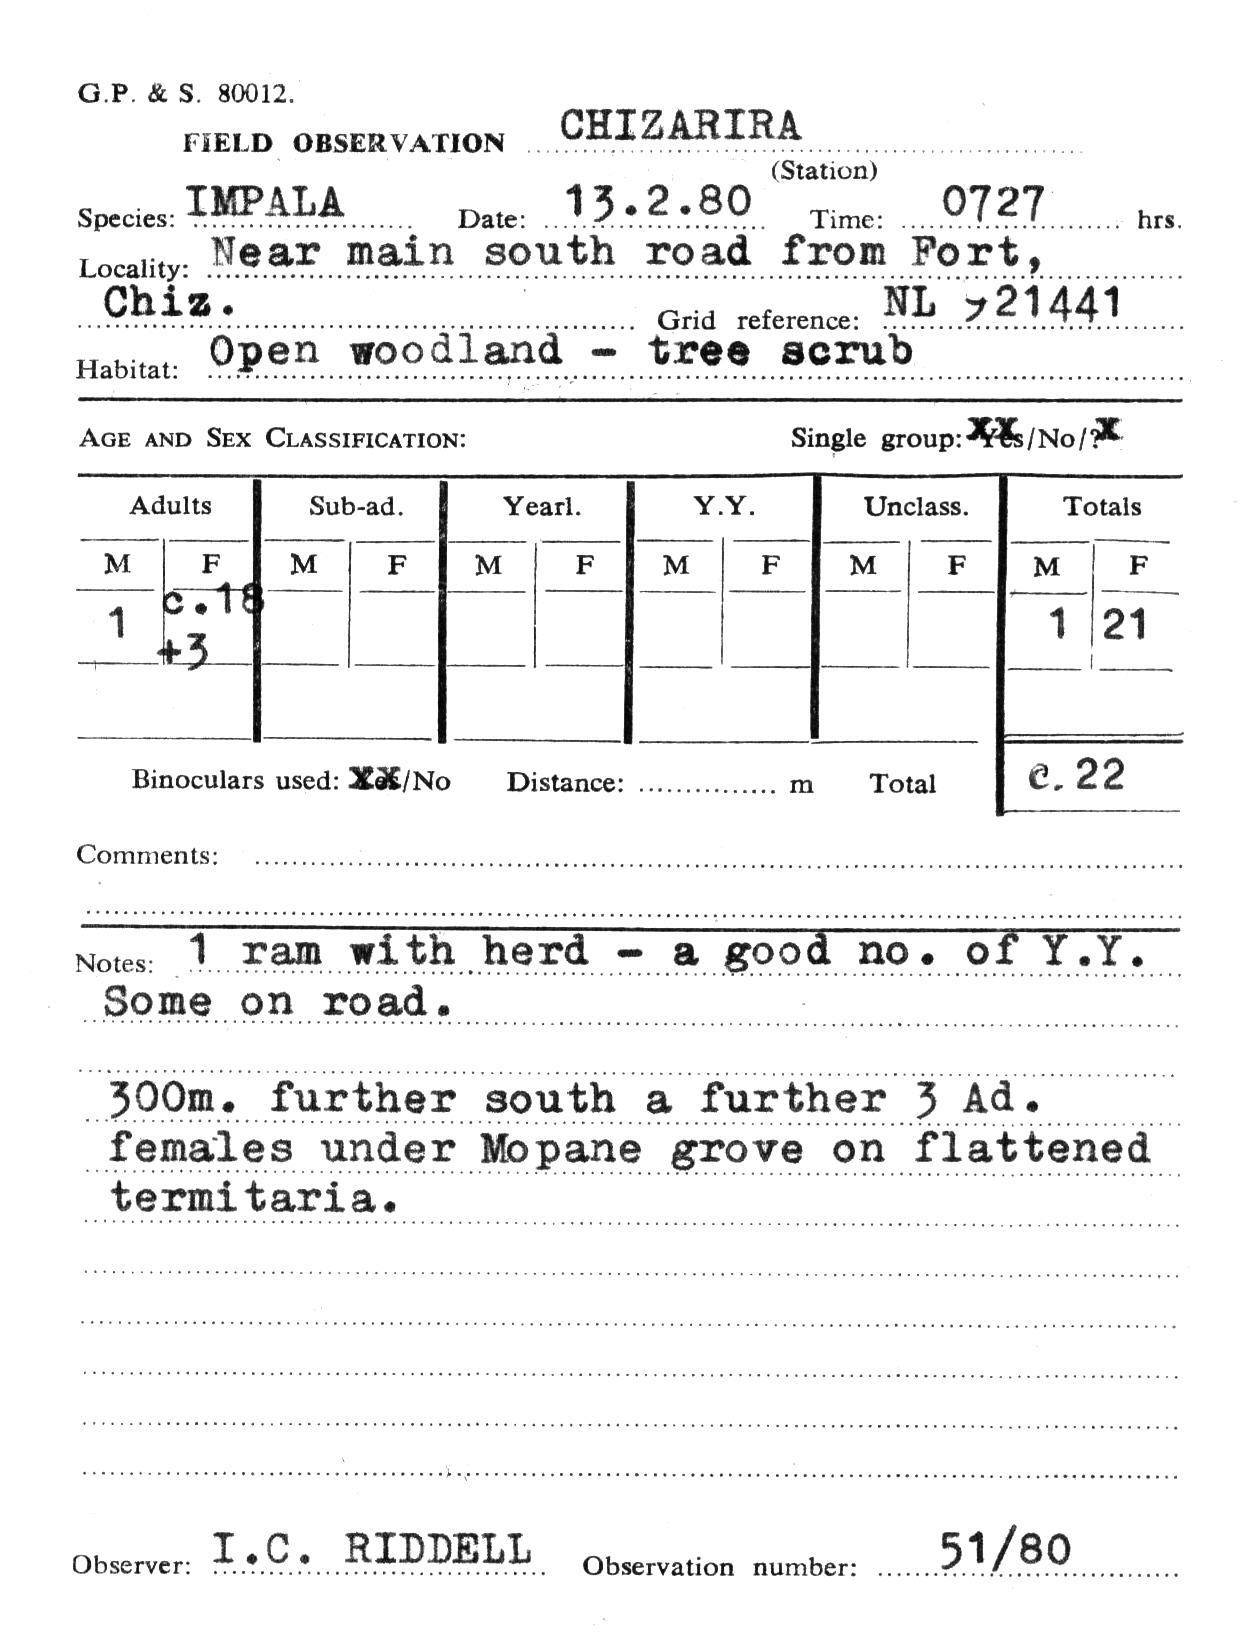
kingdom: Animalia
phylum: Chordata
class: Mammalia
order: Artiodactyla
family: Bovidae
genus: Aepyceros
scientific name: Aepyceros melampus
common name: Impala
